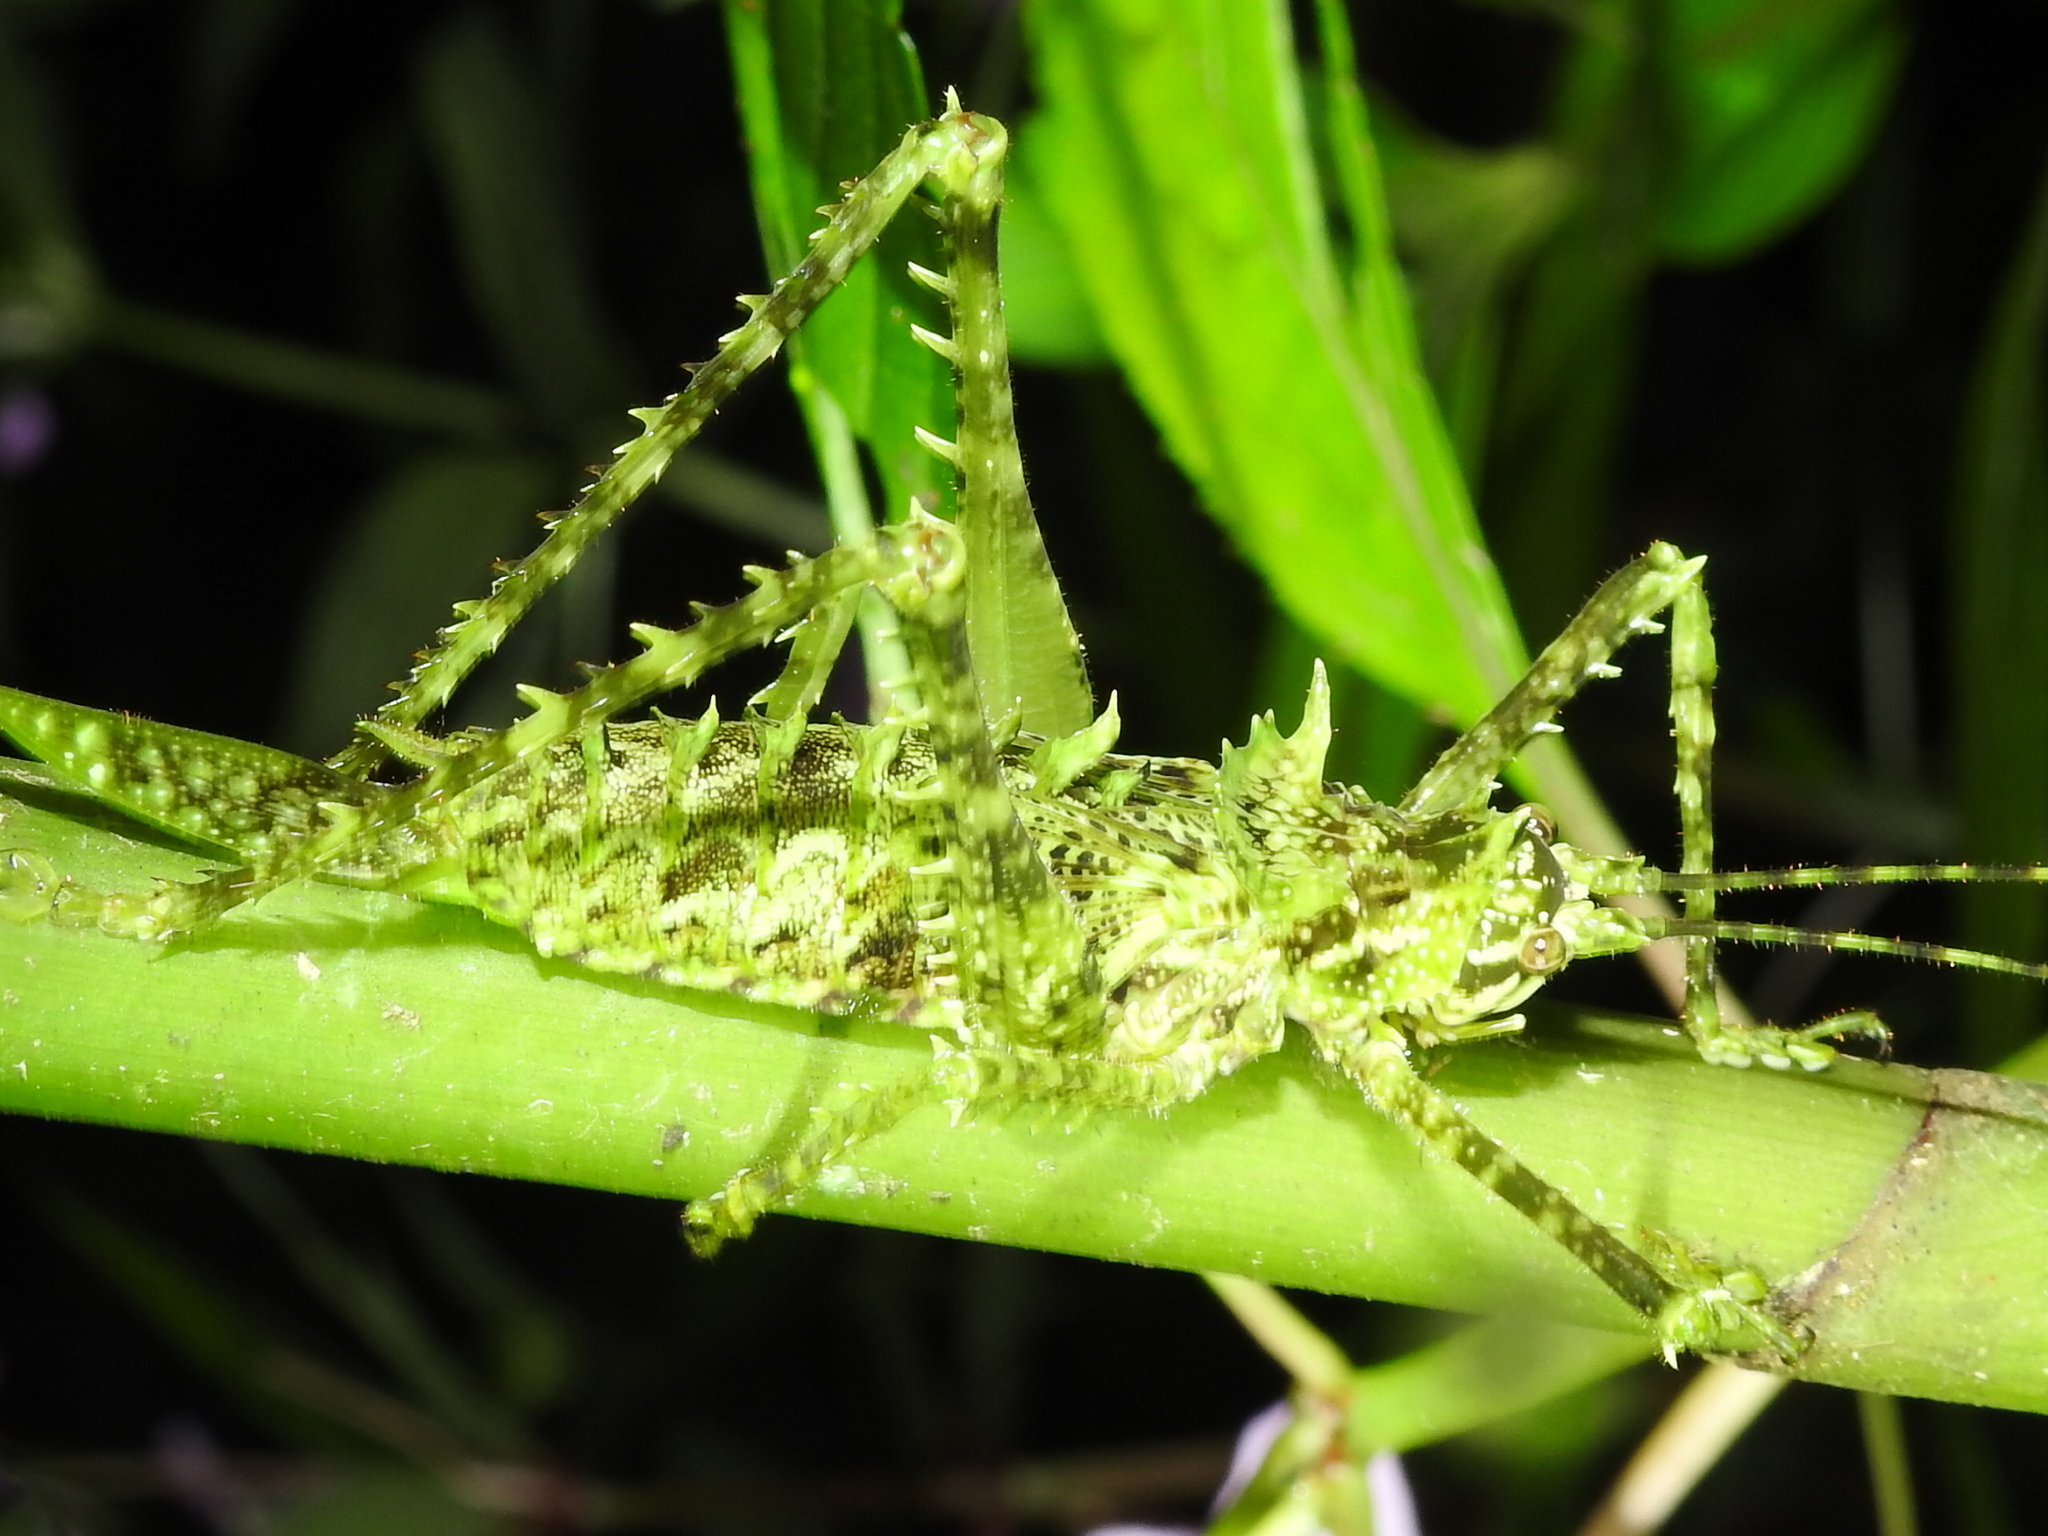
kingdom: Animalia
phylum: Arthropoda
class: Insecta
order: Orthoptera
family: Tettigoniidae
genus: Championica
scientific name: Championica montana
